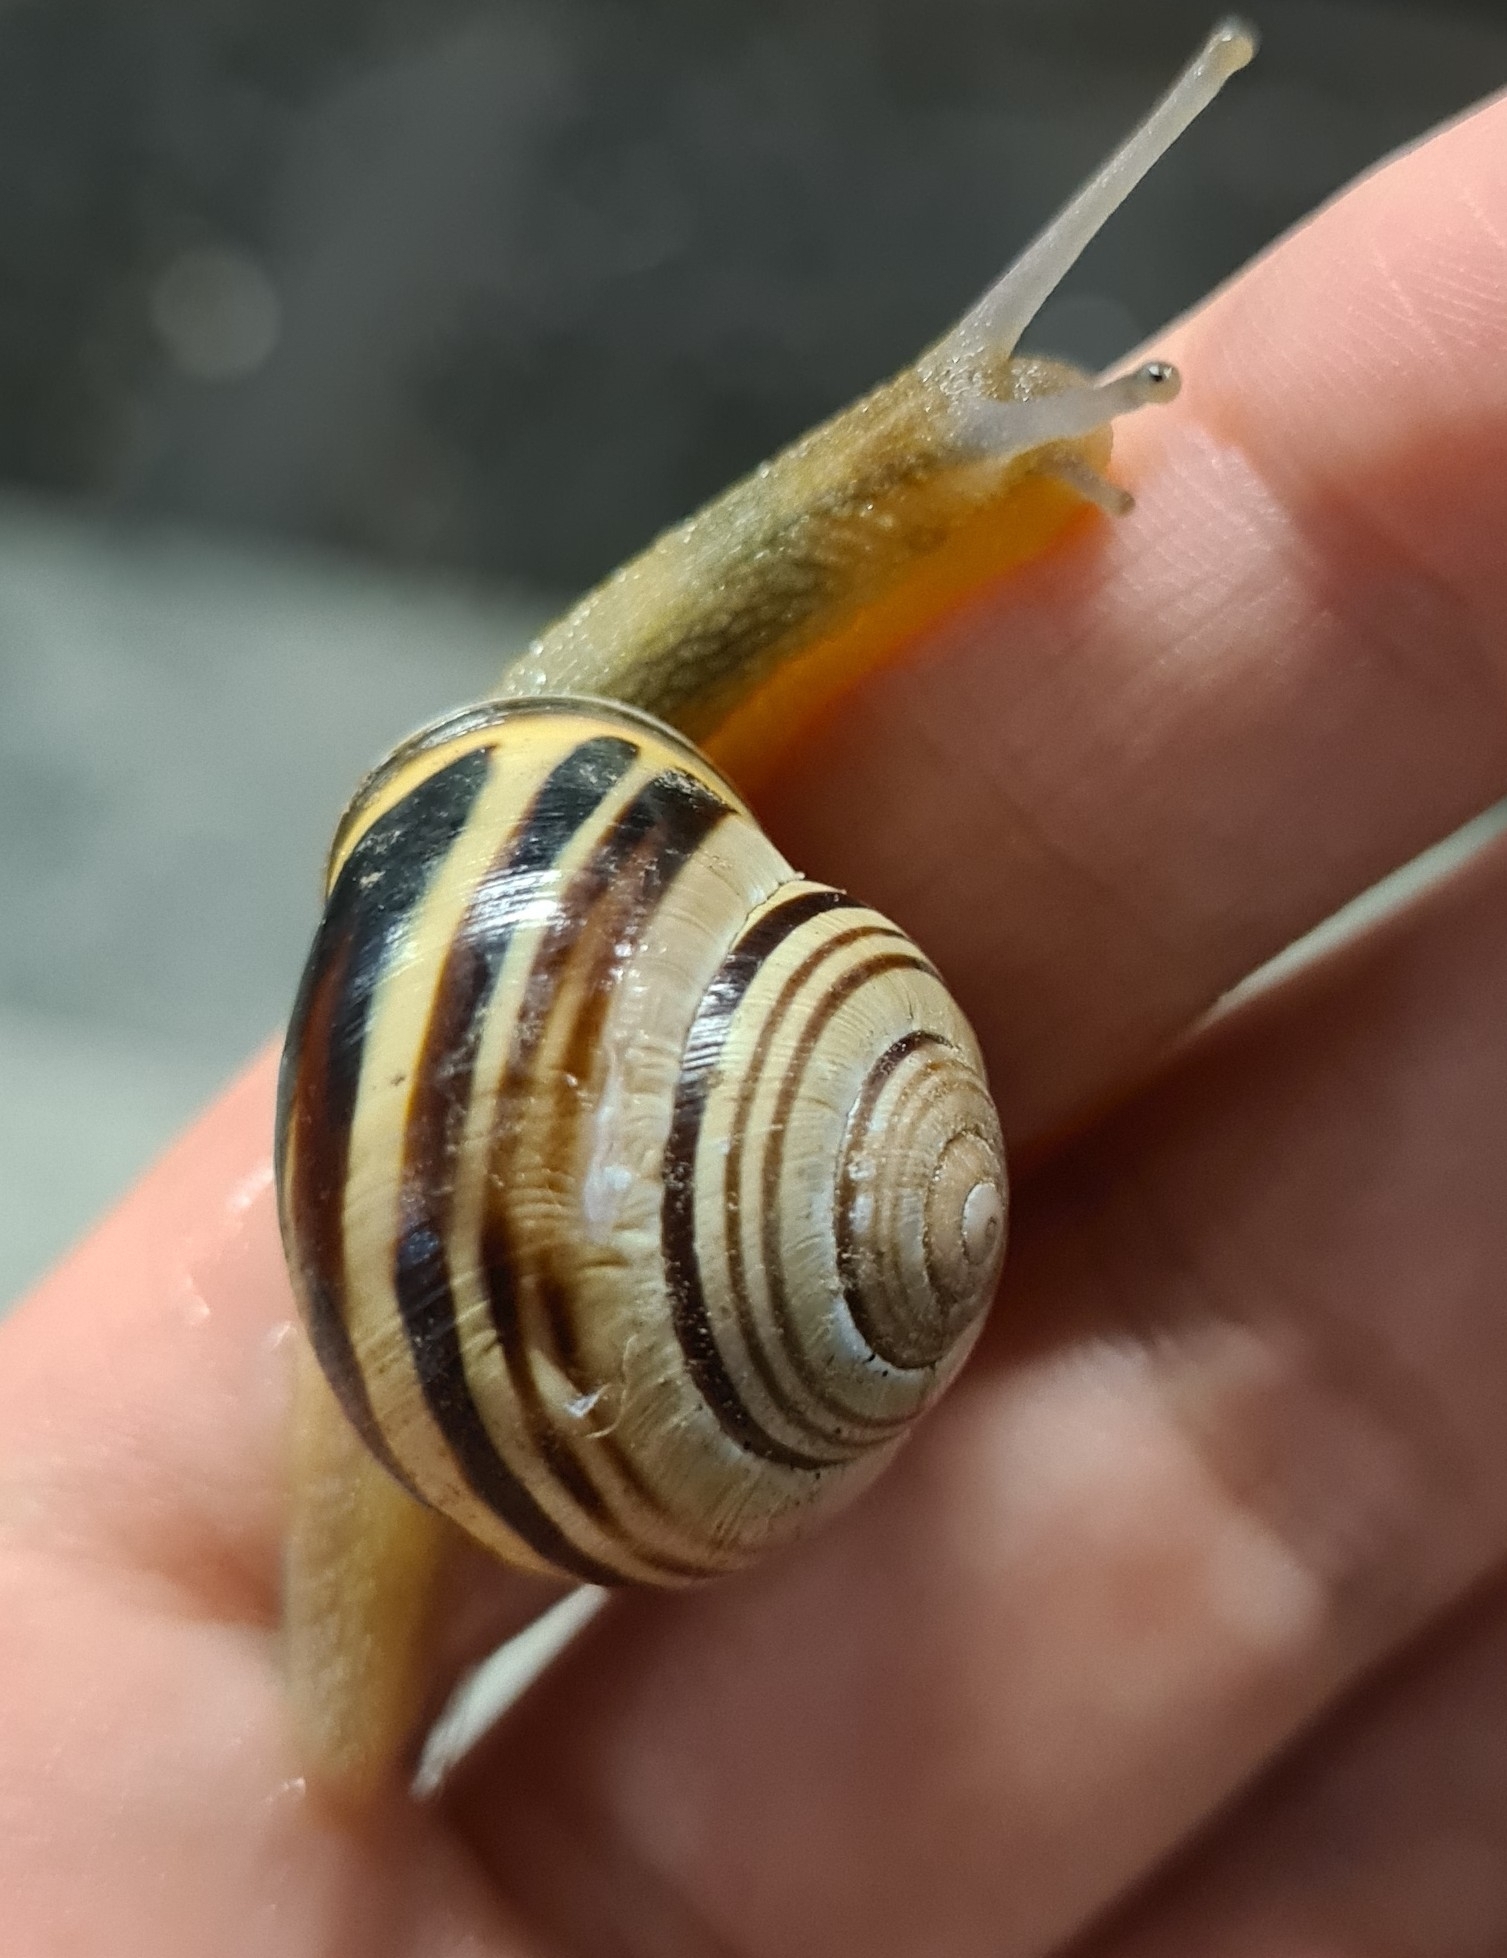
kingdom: Animalia
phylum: Mollusca
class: Gastropoda
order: Stylommatophora
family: Helicidae
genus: Cepaea
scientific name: Cepaea nemoralis
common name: Grovesnail
